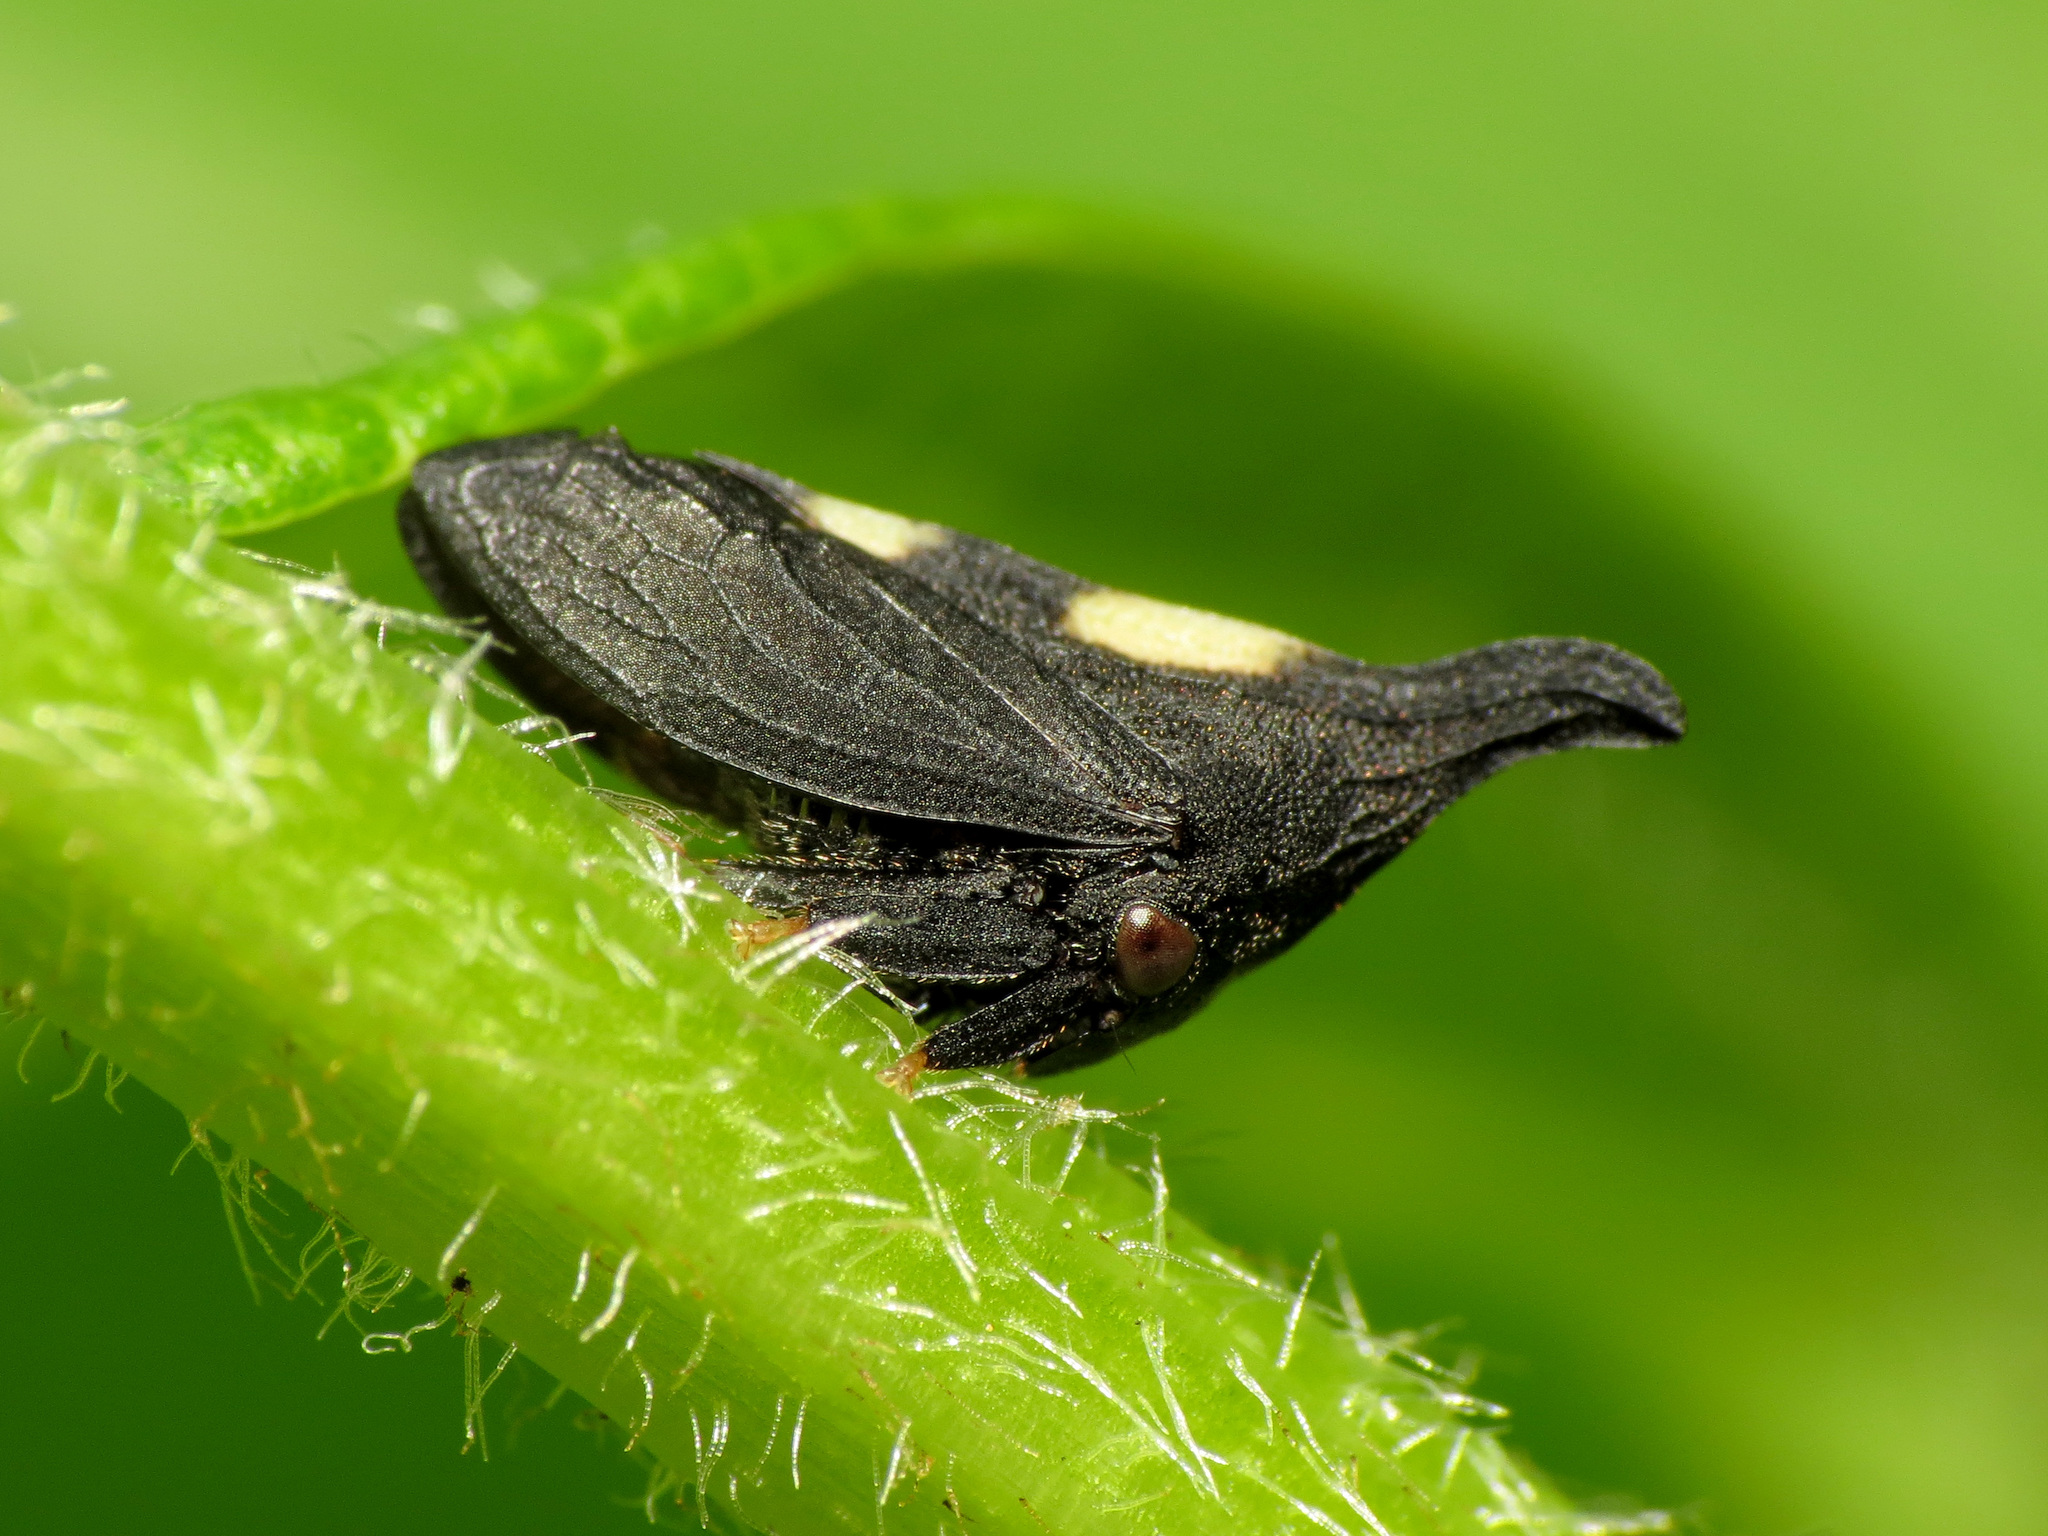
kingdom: Animalia
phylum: Arthropoda
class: Insecta
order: Hemiptera
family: Membracidae
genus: Enchenopa
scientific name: Enchenopa
